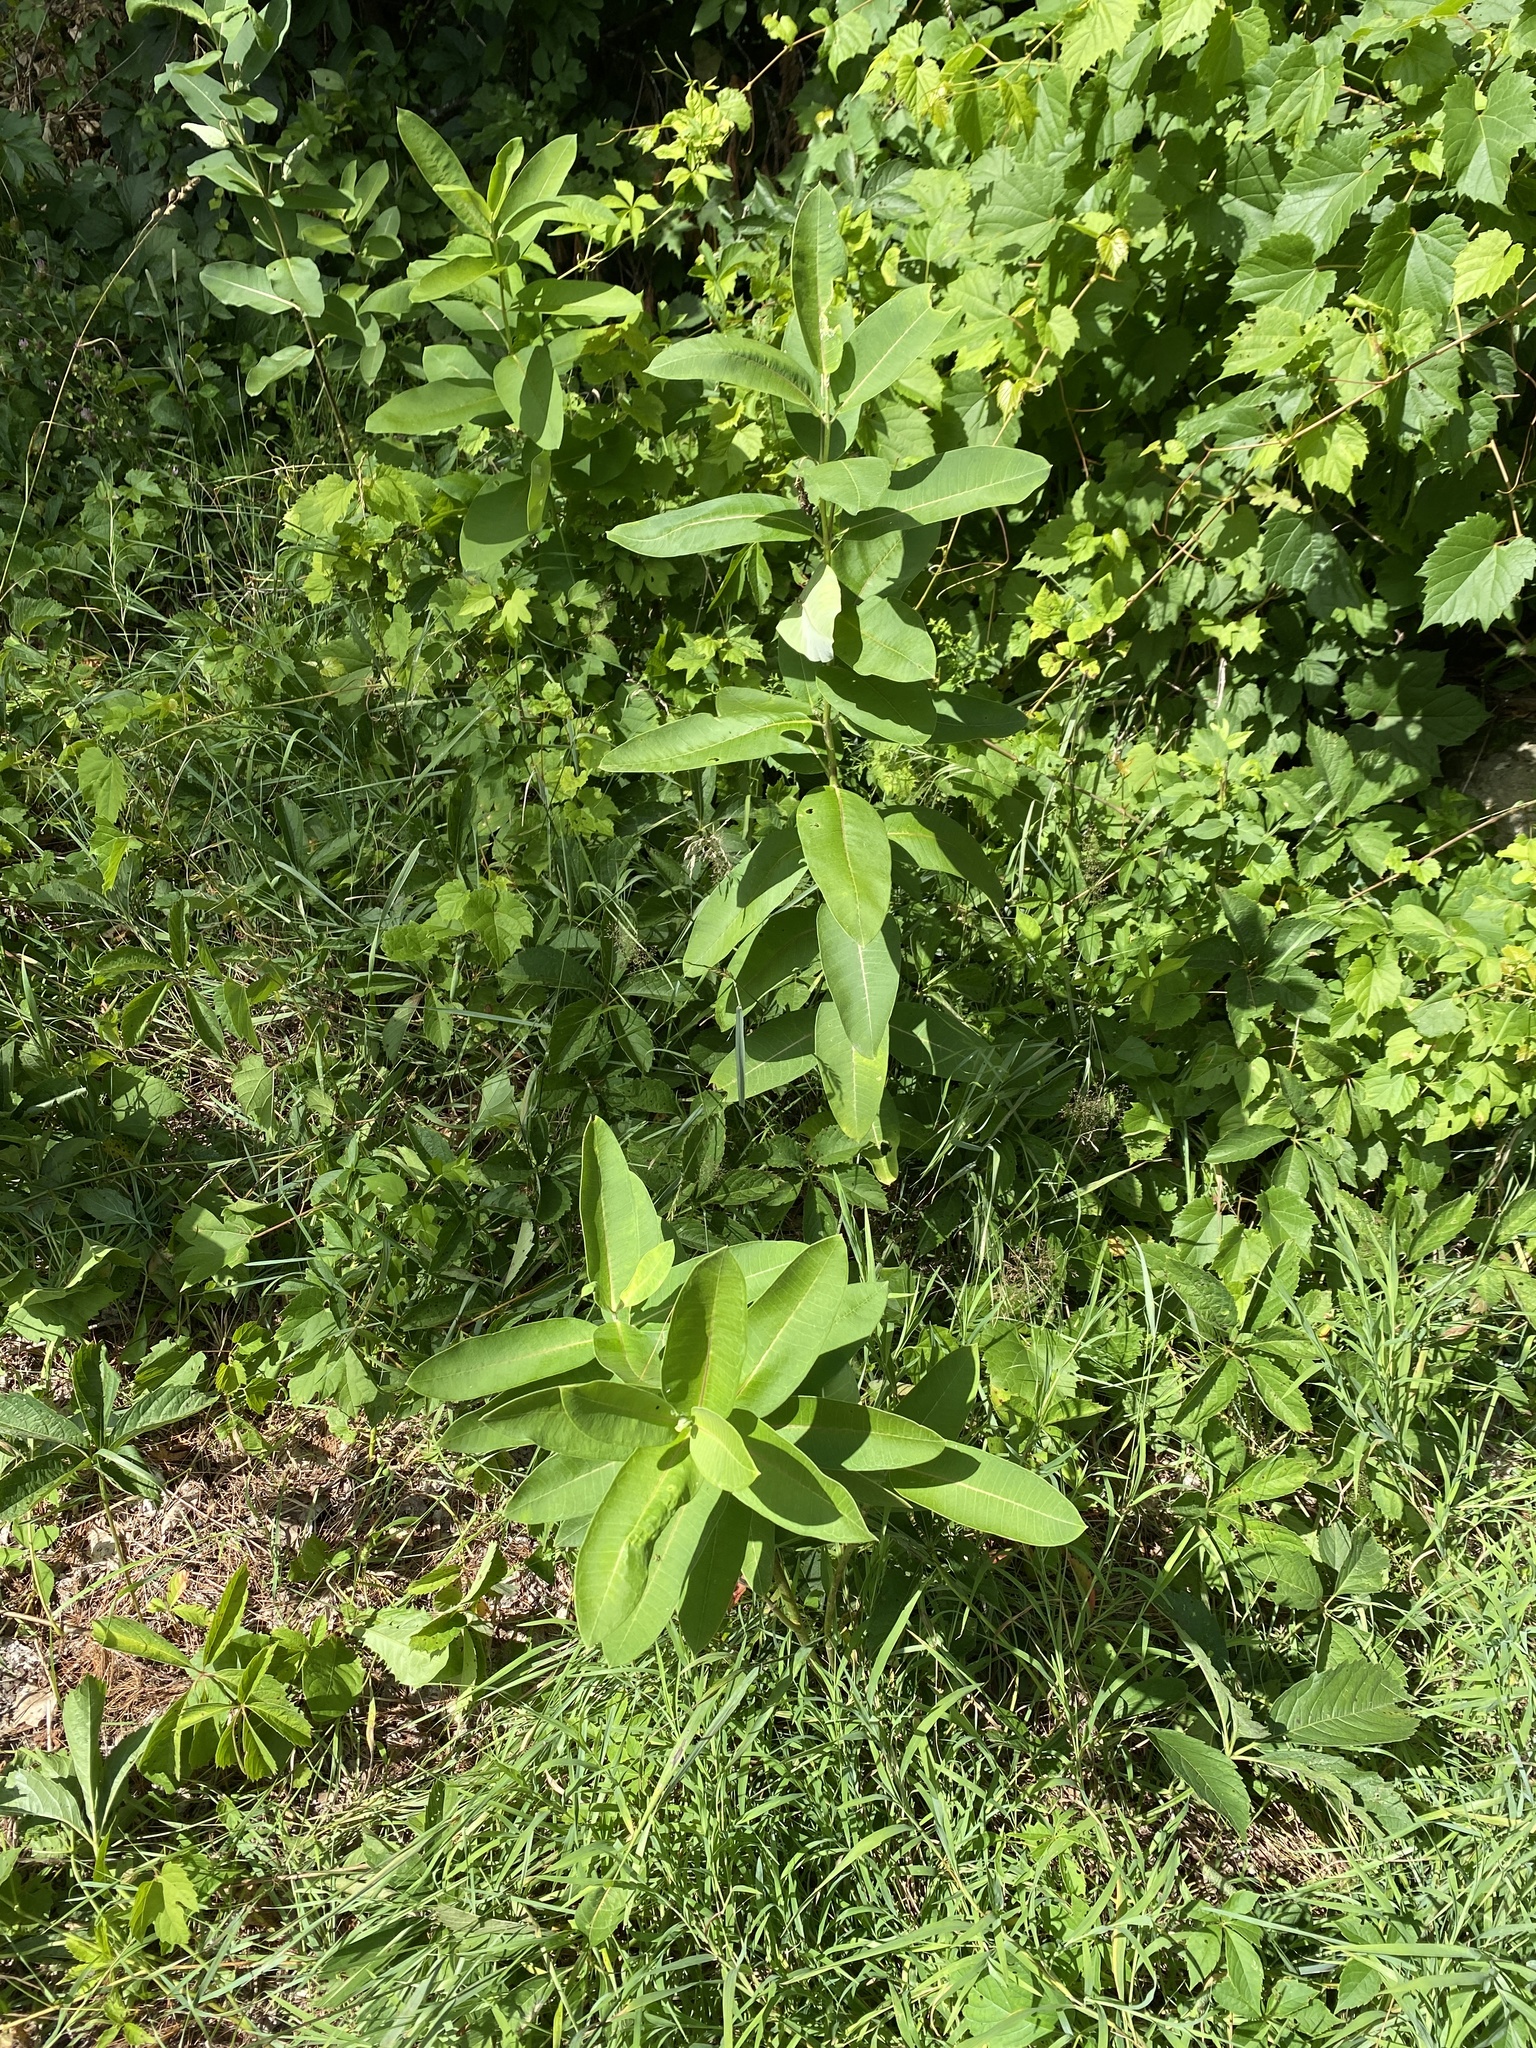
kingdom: Plantae
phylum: Tracheophyta
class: Magnoliopsida
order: Gentianales
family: Apocynaceae
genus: Asclepias
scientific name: Asclepias syriaca
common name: Common milkweed
